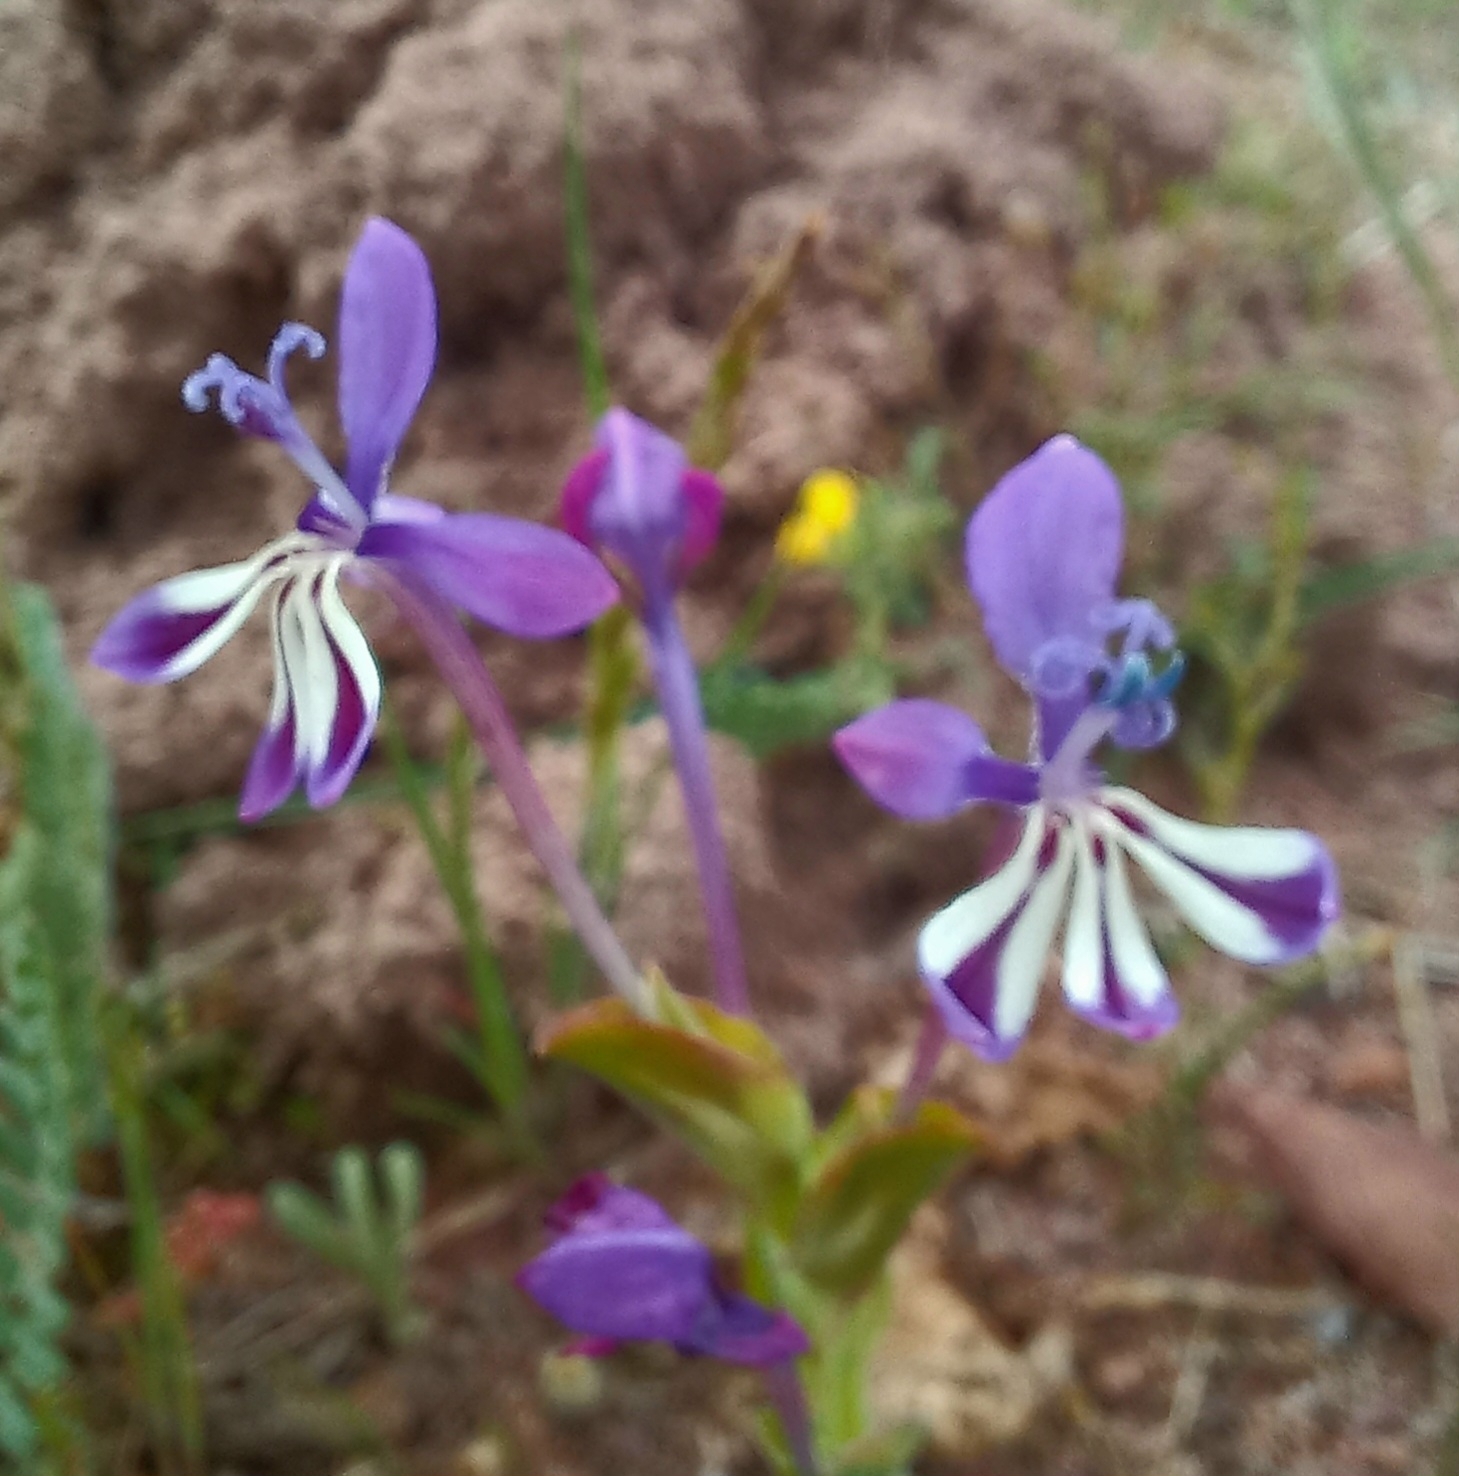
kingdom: Plantae
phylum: Tracheophyta
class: Liliopsida
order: Asparagales
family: Iridaceae
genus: Lapeirousia
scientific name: Lapeirousia jacquinii
